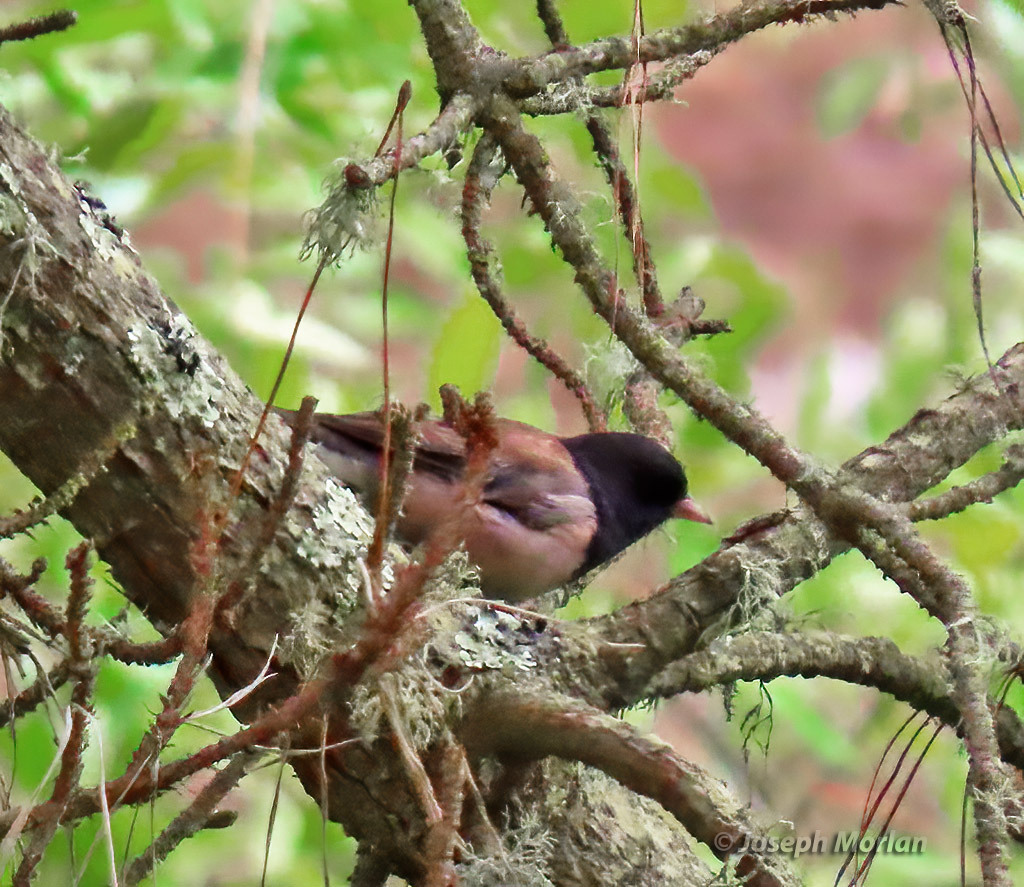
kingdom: Animalia
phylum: Chordata
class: Aves
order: Passeriformes
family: Passerellidae
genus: Junco
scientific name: Junco hyemalis
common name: Dark-eyed junco
